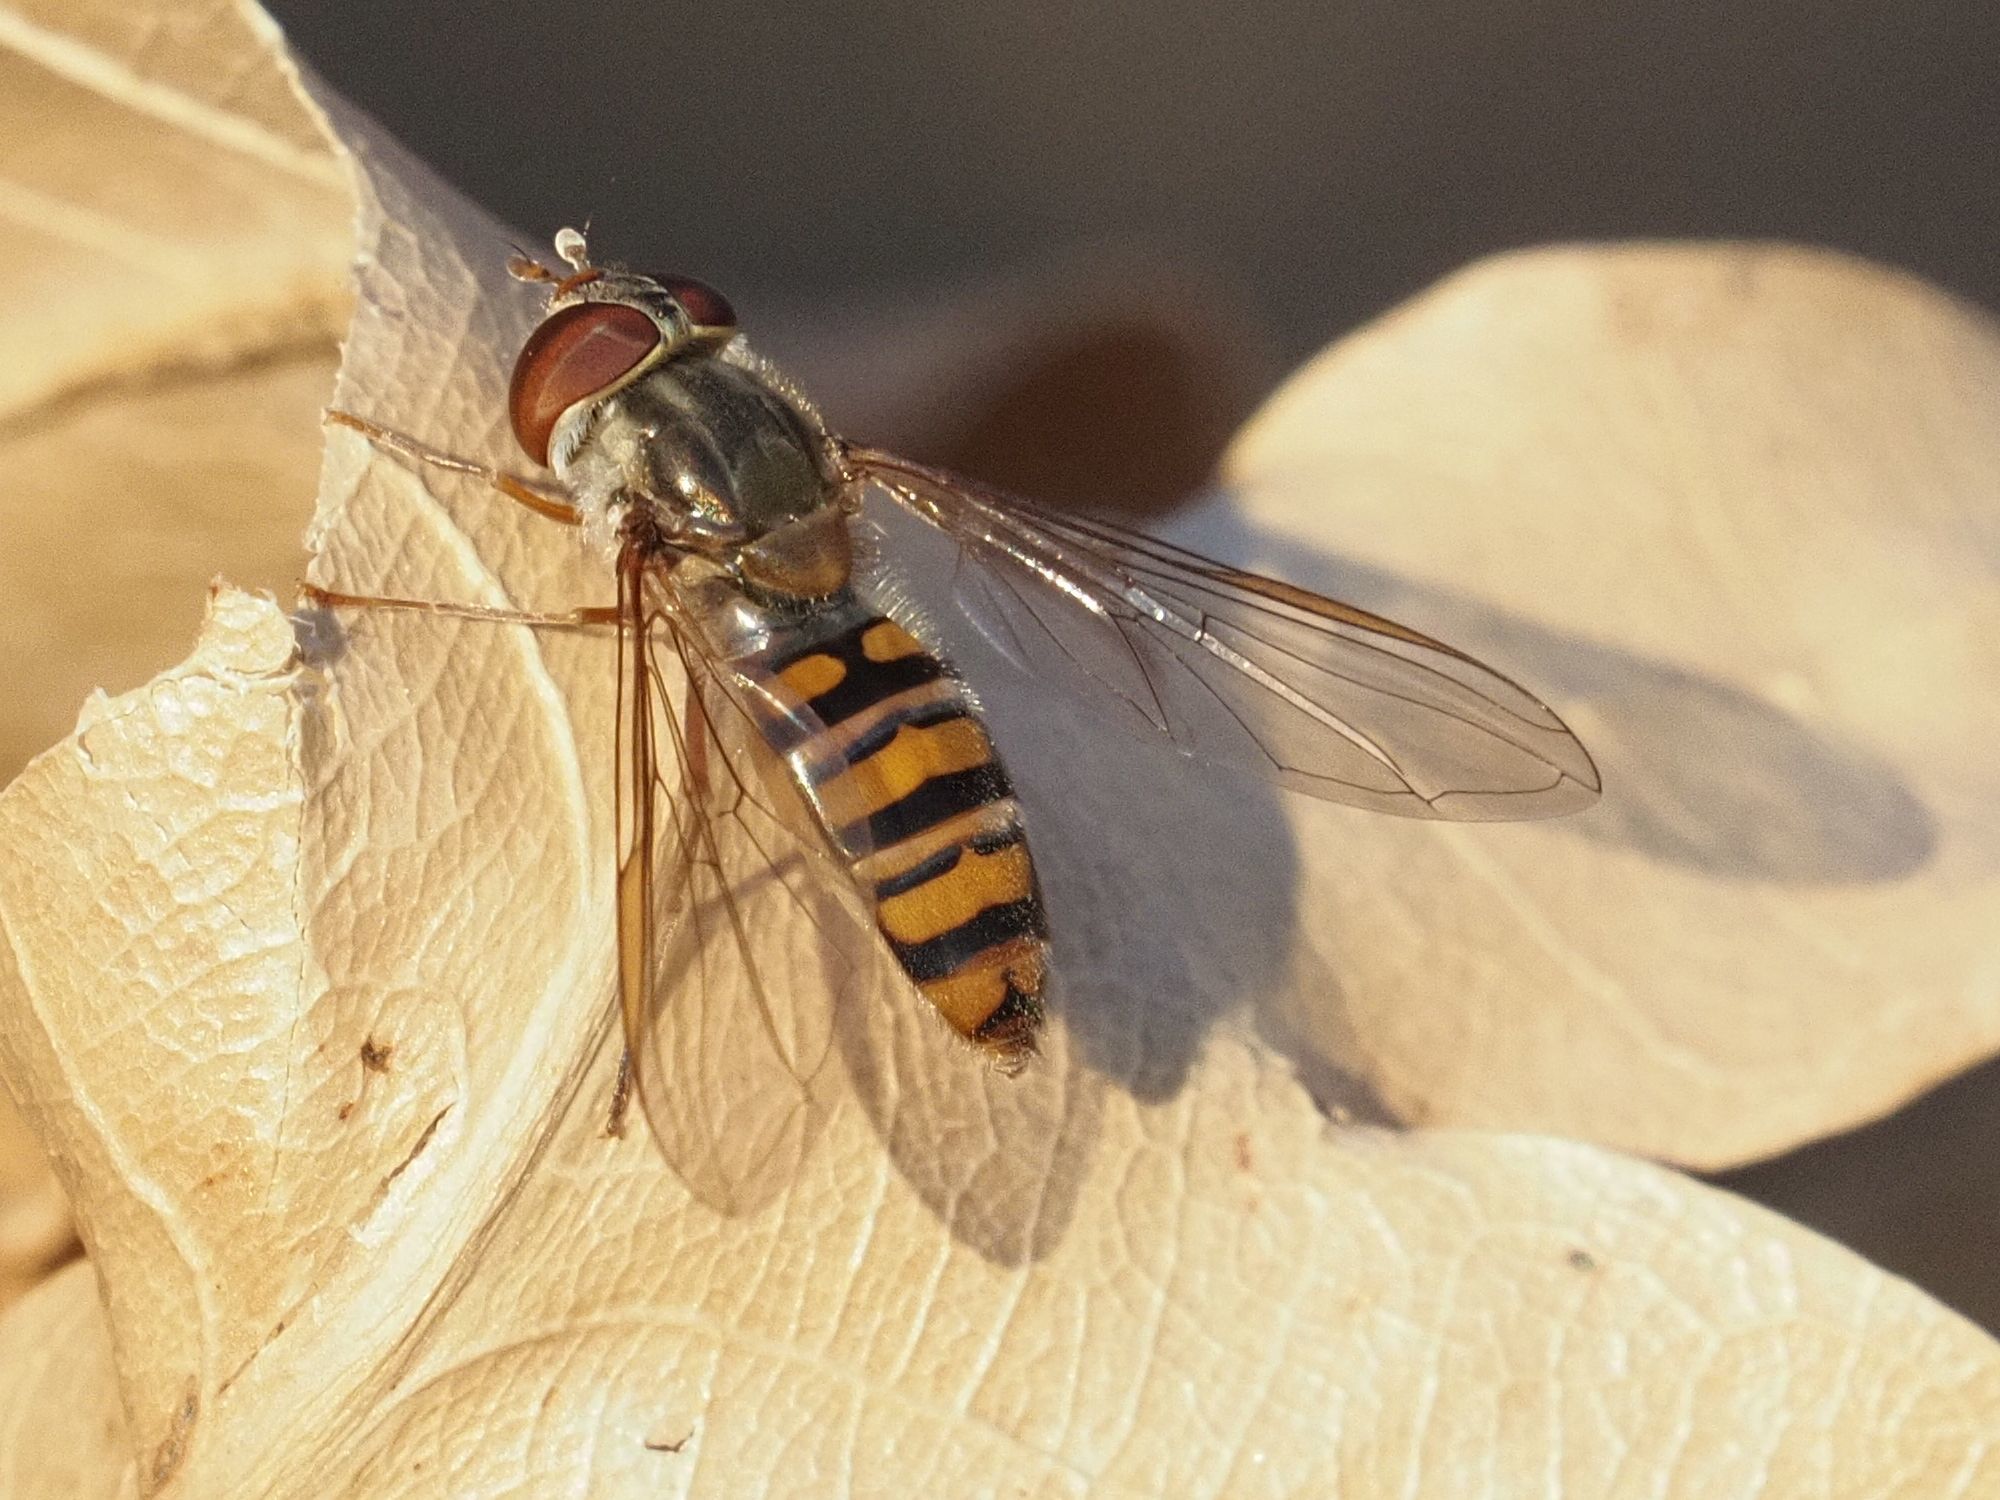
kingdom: Animalia
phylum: Arthropoda
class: Insecta
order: Diptera
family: Syrphidae
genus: Episyrphus
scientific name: Episyrphus balteatus
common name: Marmalade hoverfly
